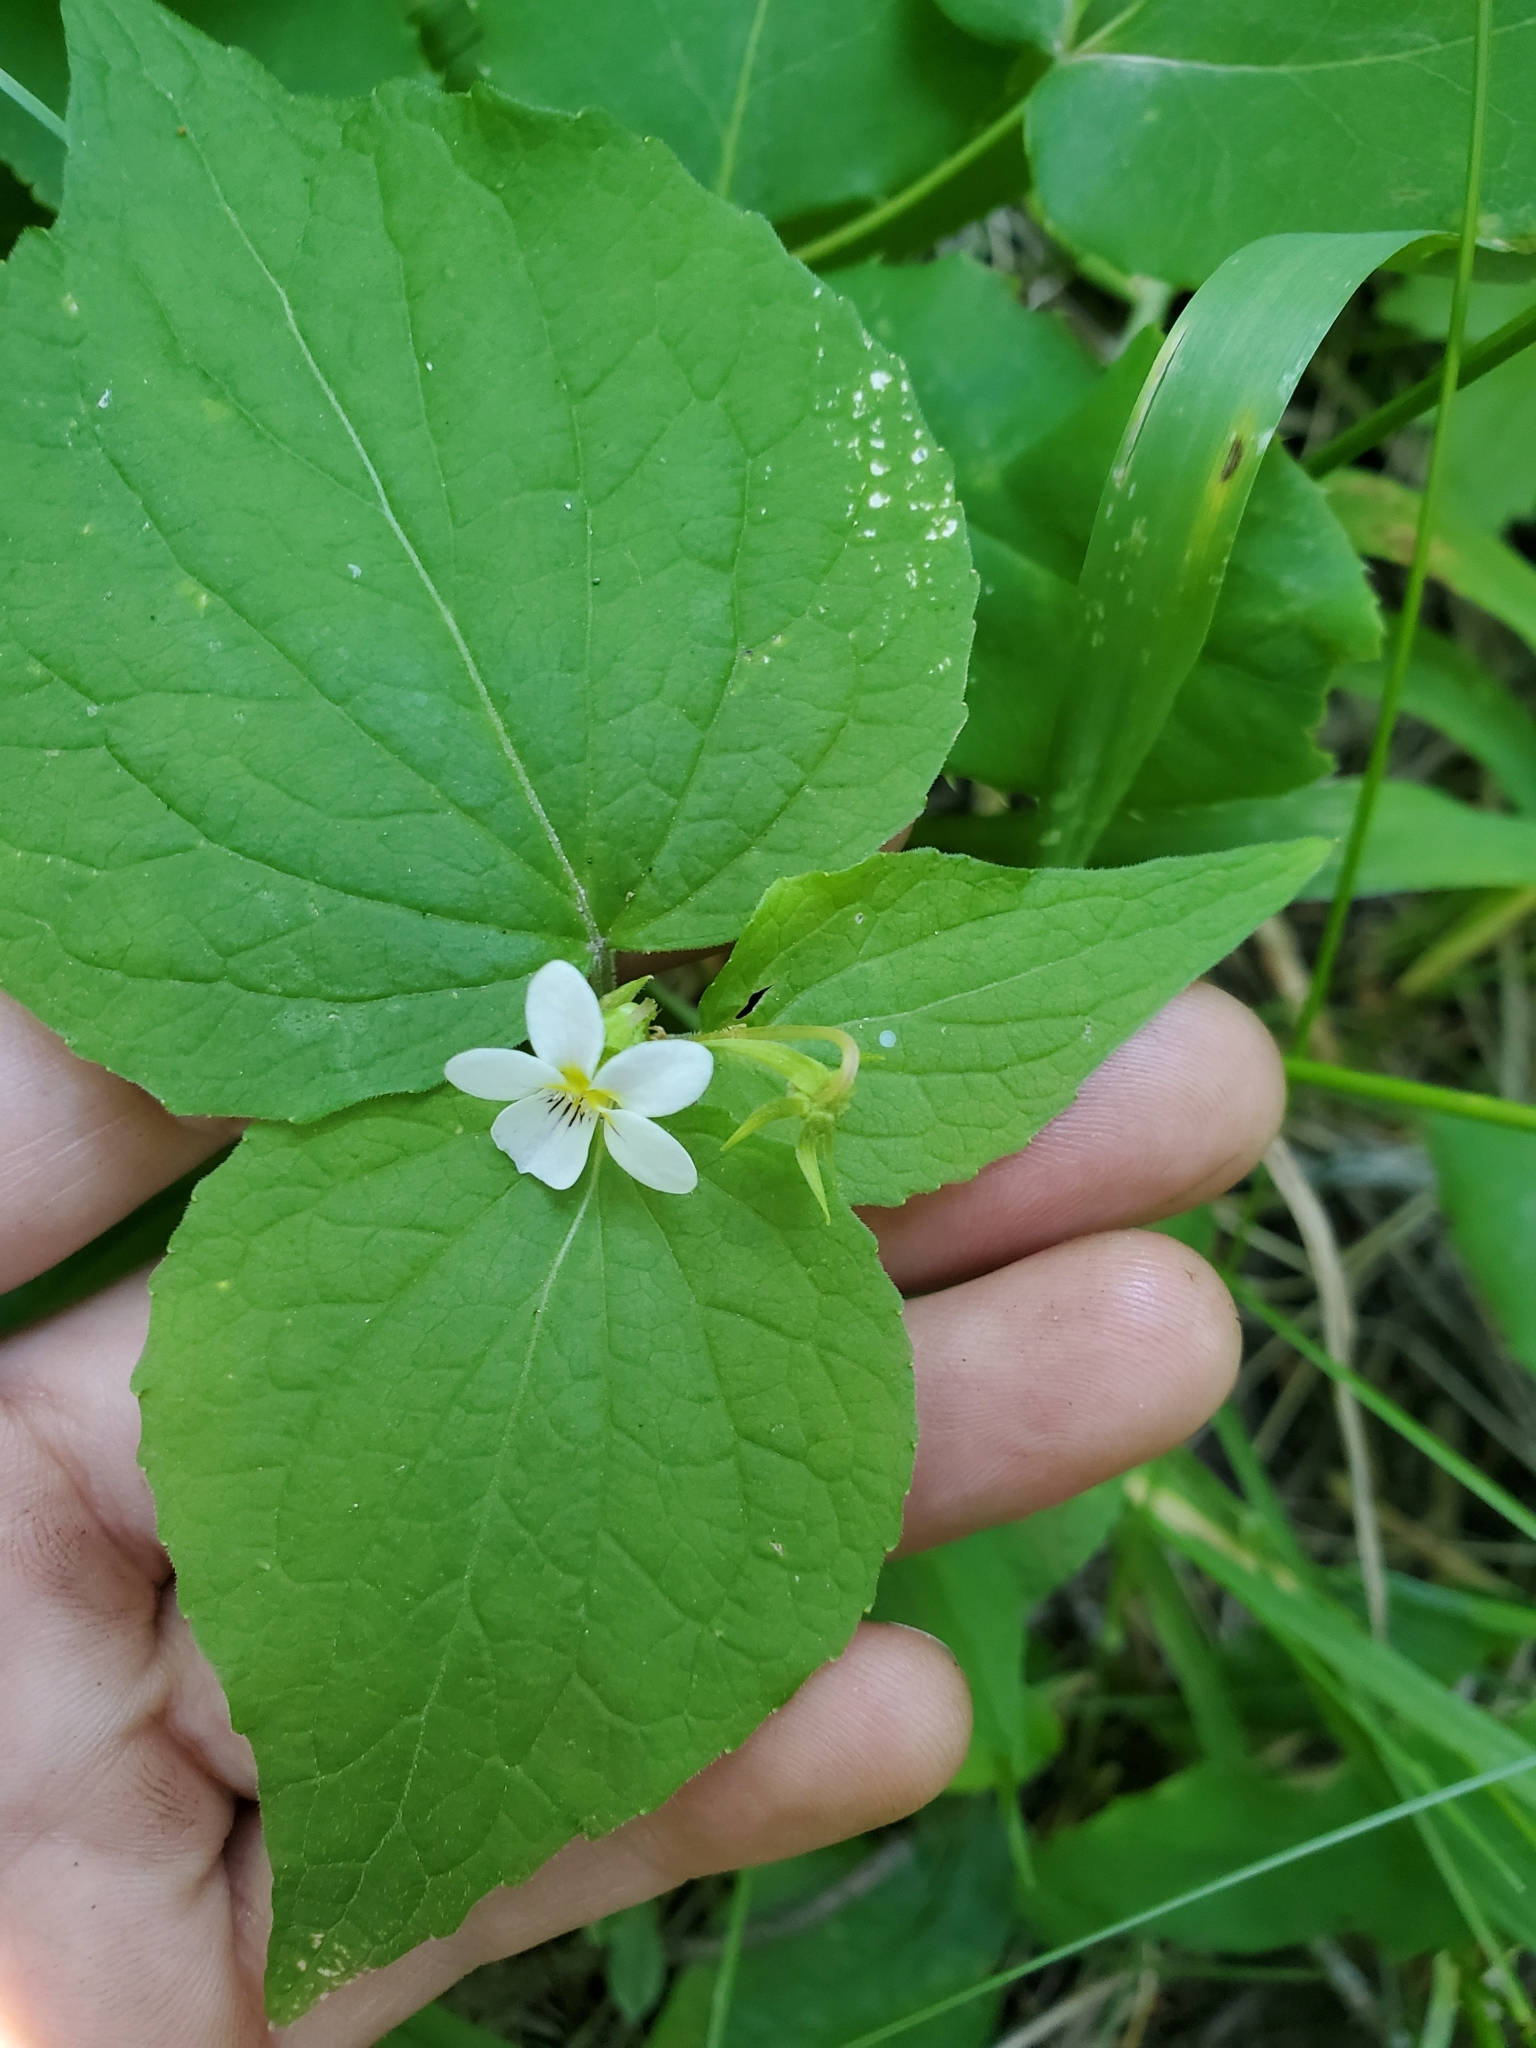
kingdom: Plantae
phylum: Tracheophyta
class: Magnoliopsida
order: Malpighiales
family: Violaceae
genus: Viola
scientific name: Viola canadensis
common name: Canada violet
